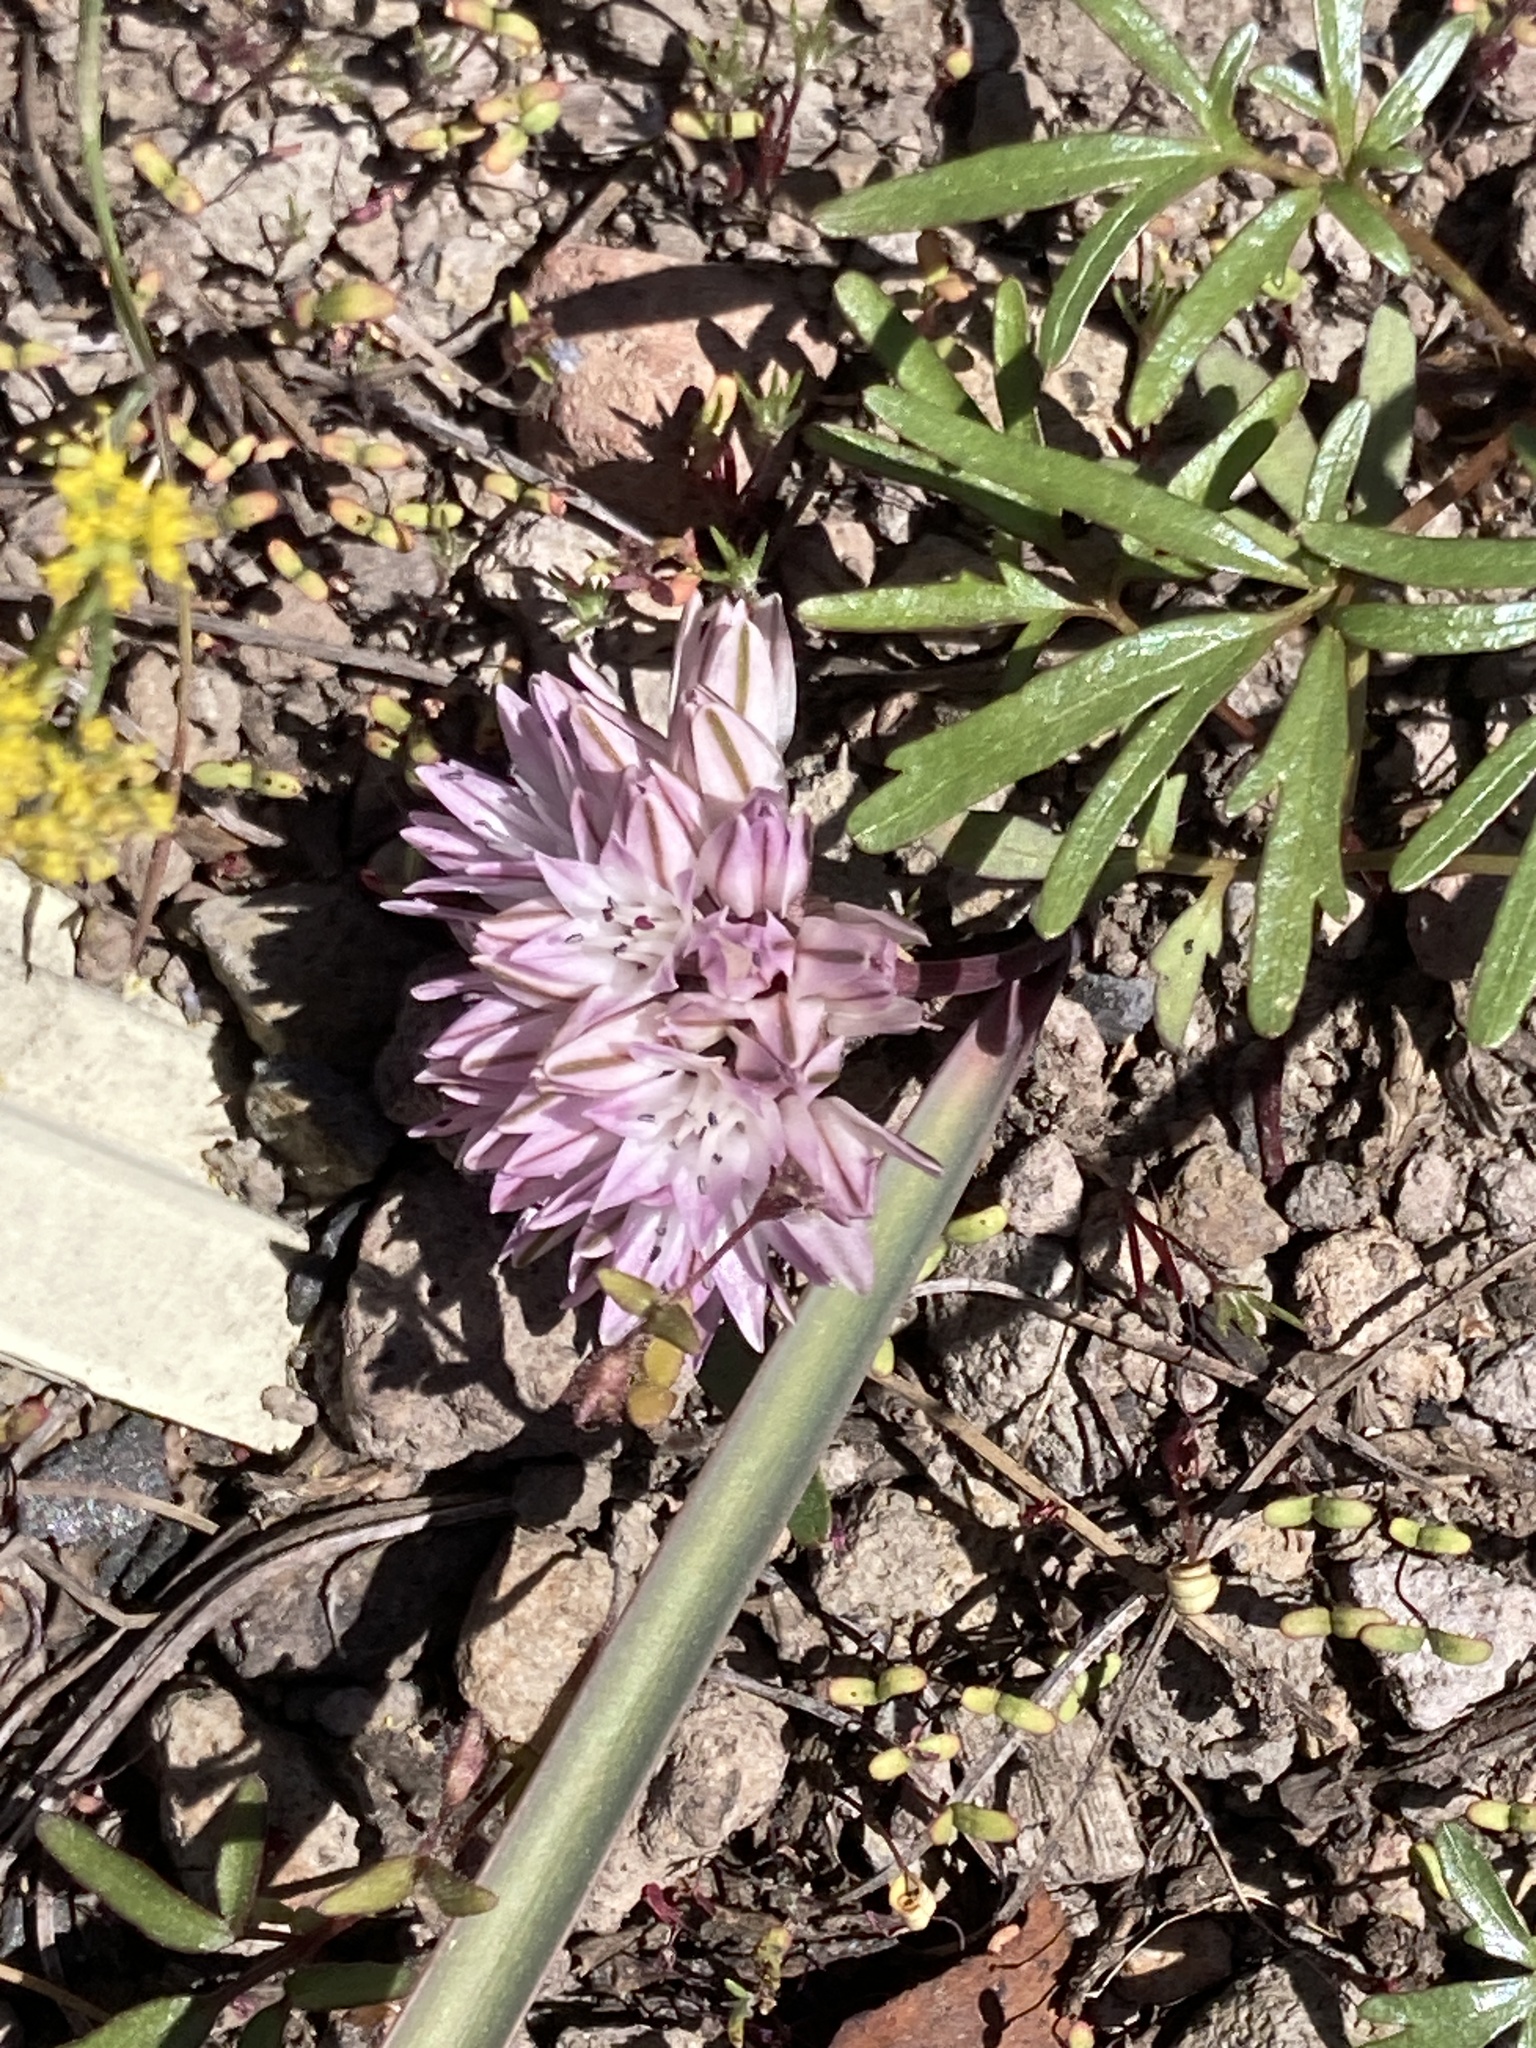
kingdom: Plantae
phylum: Tracheophyta
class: Liliopsida
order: Asparagales
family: Amaryllidaceae
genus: Allium
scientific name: Allium obtusum
